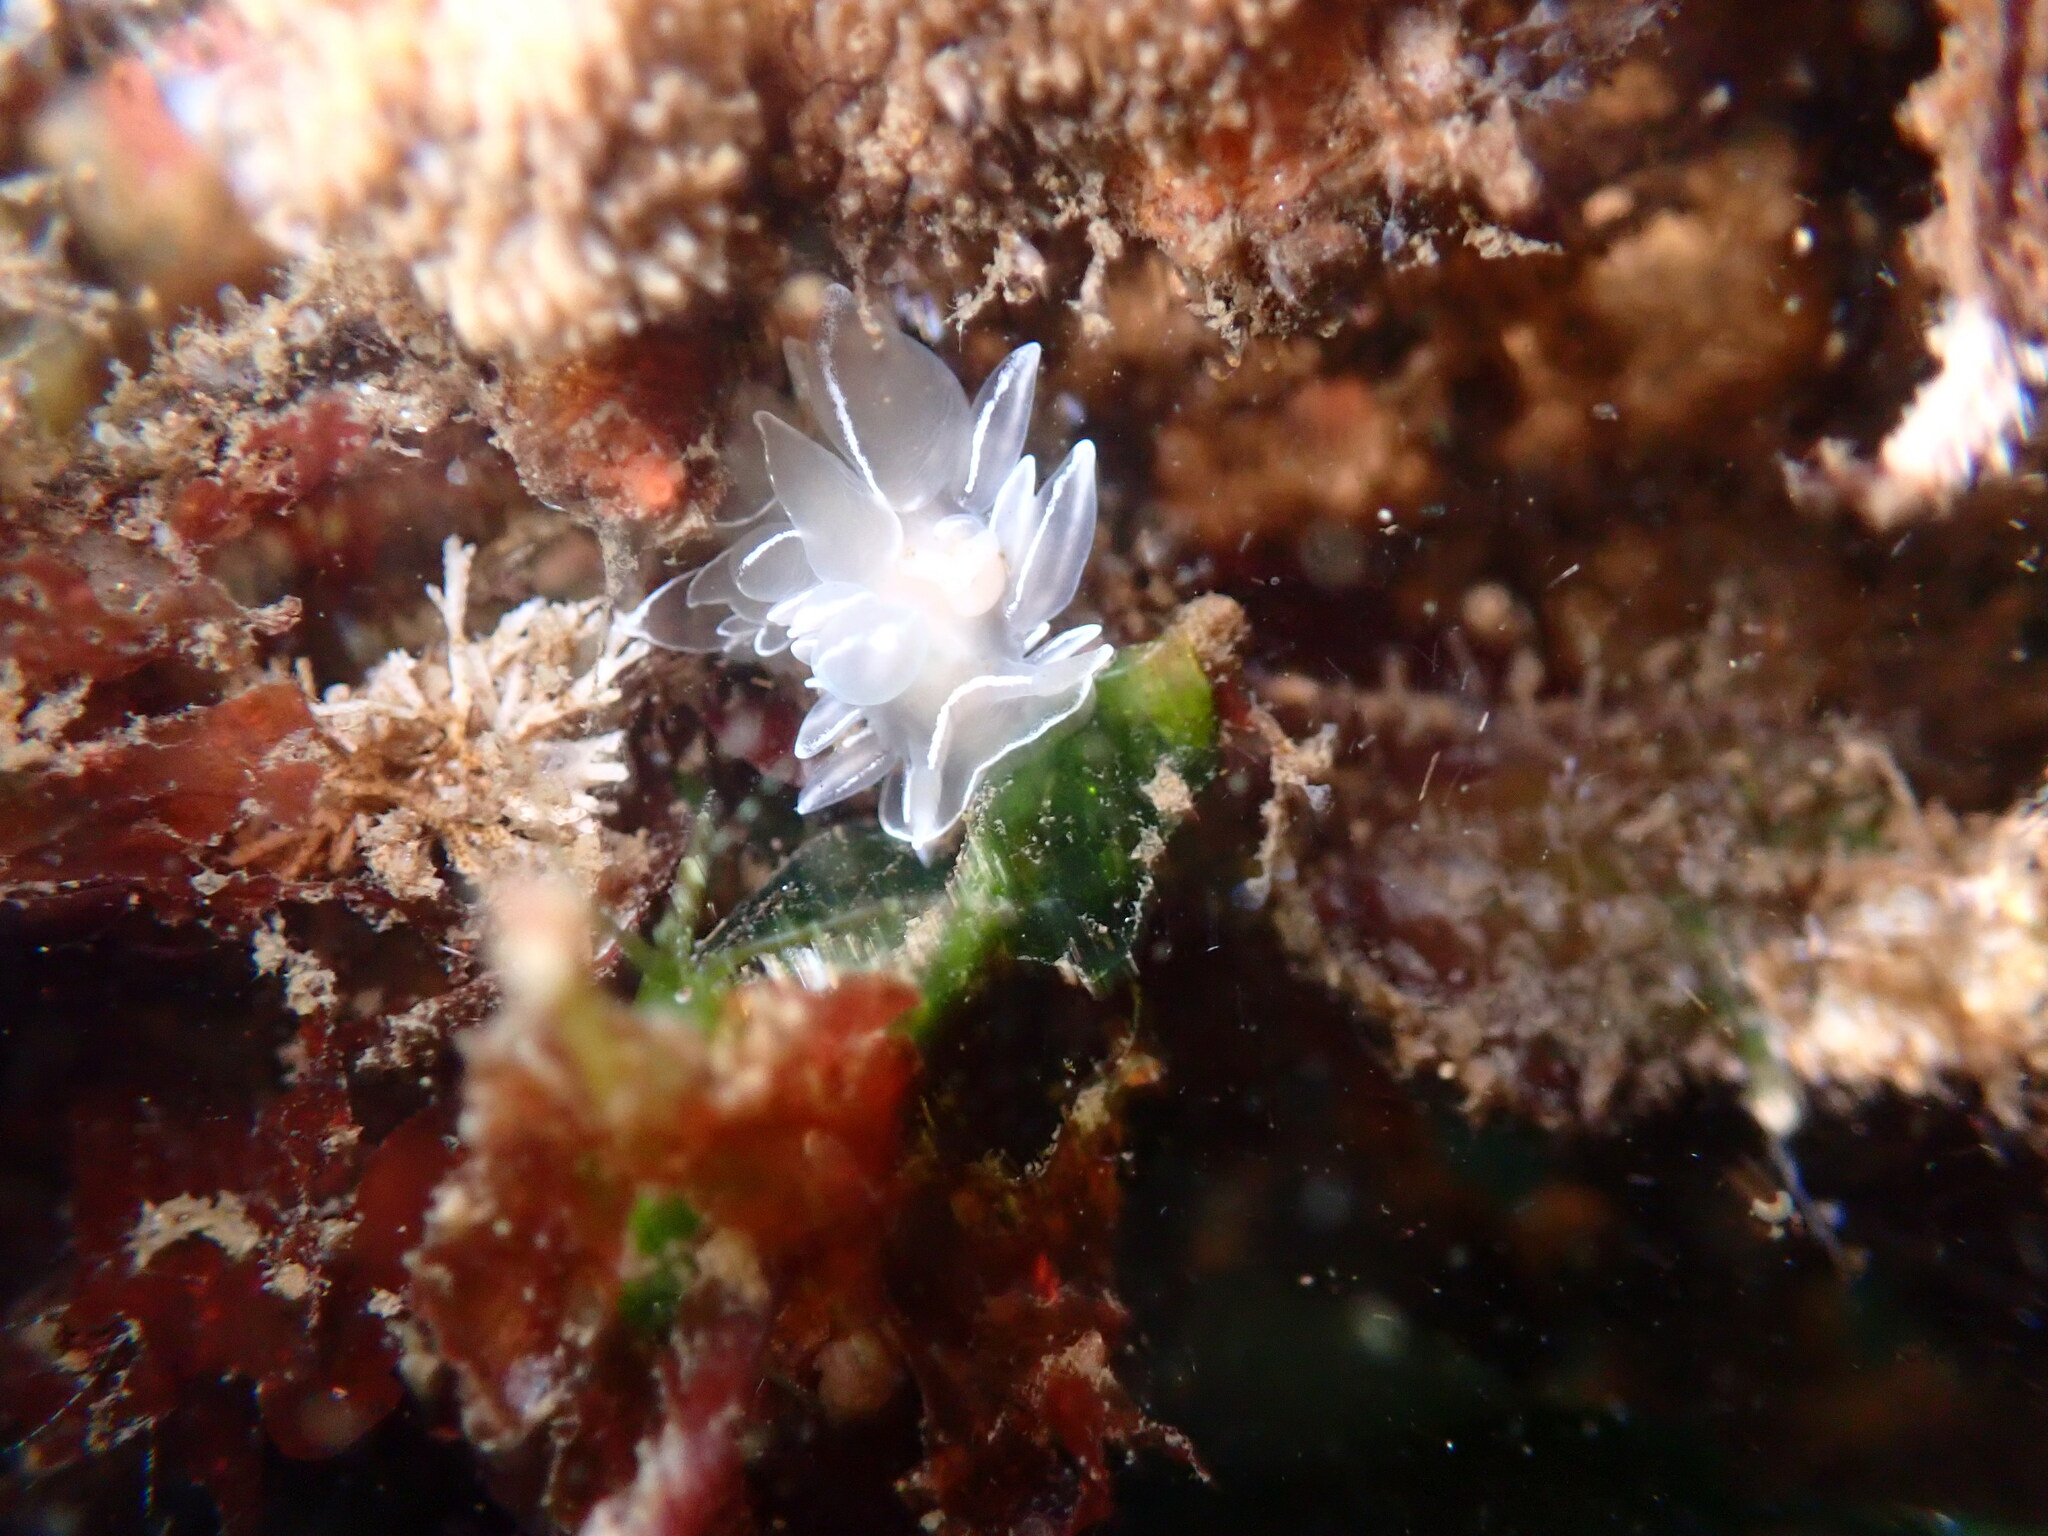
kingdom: Animalia
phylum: Mollusca
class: Gastropoda
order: Nudibranchia
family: Dironidae
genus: Dirona
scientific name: Dirona albolineata
